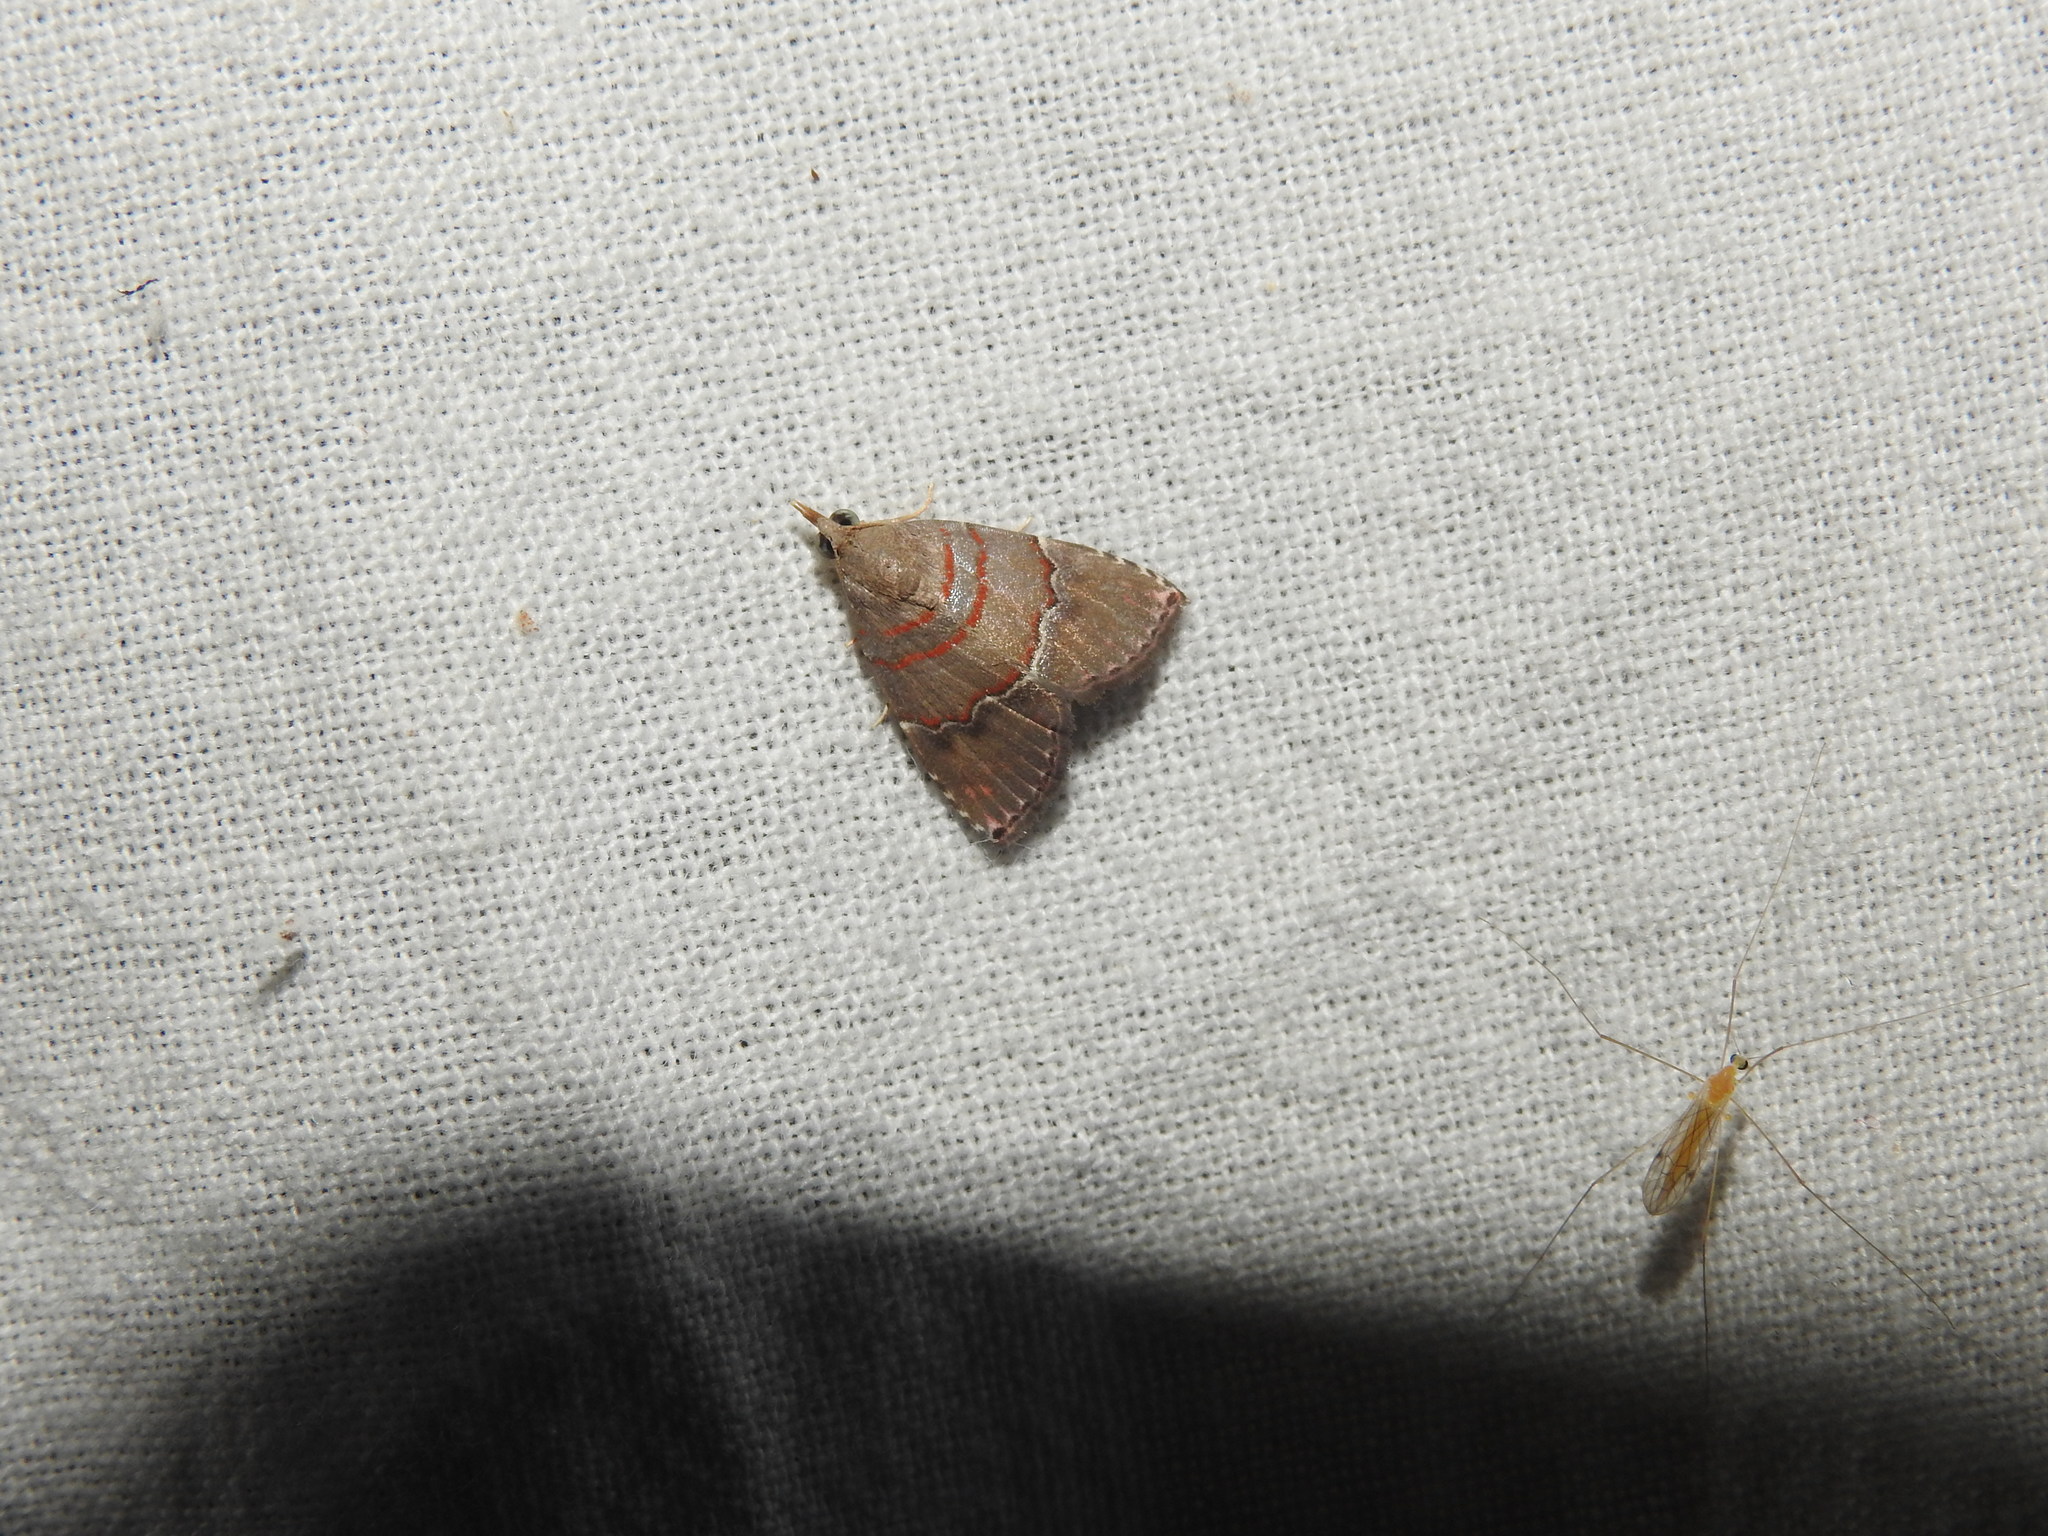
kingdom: Animalia
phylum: Arthropoda
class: Insecta
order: Lepidoptera
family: Erebidae
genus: Nolasena
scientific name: Nolasena ferrifervens
